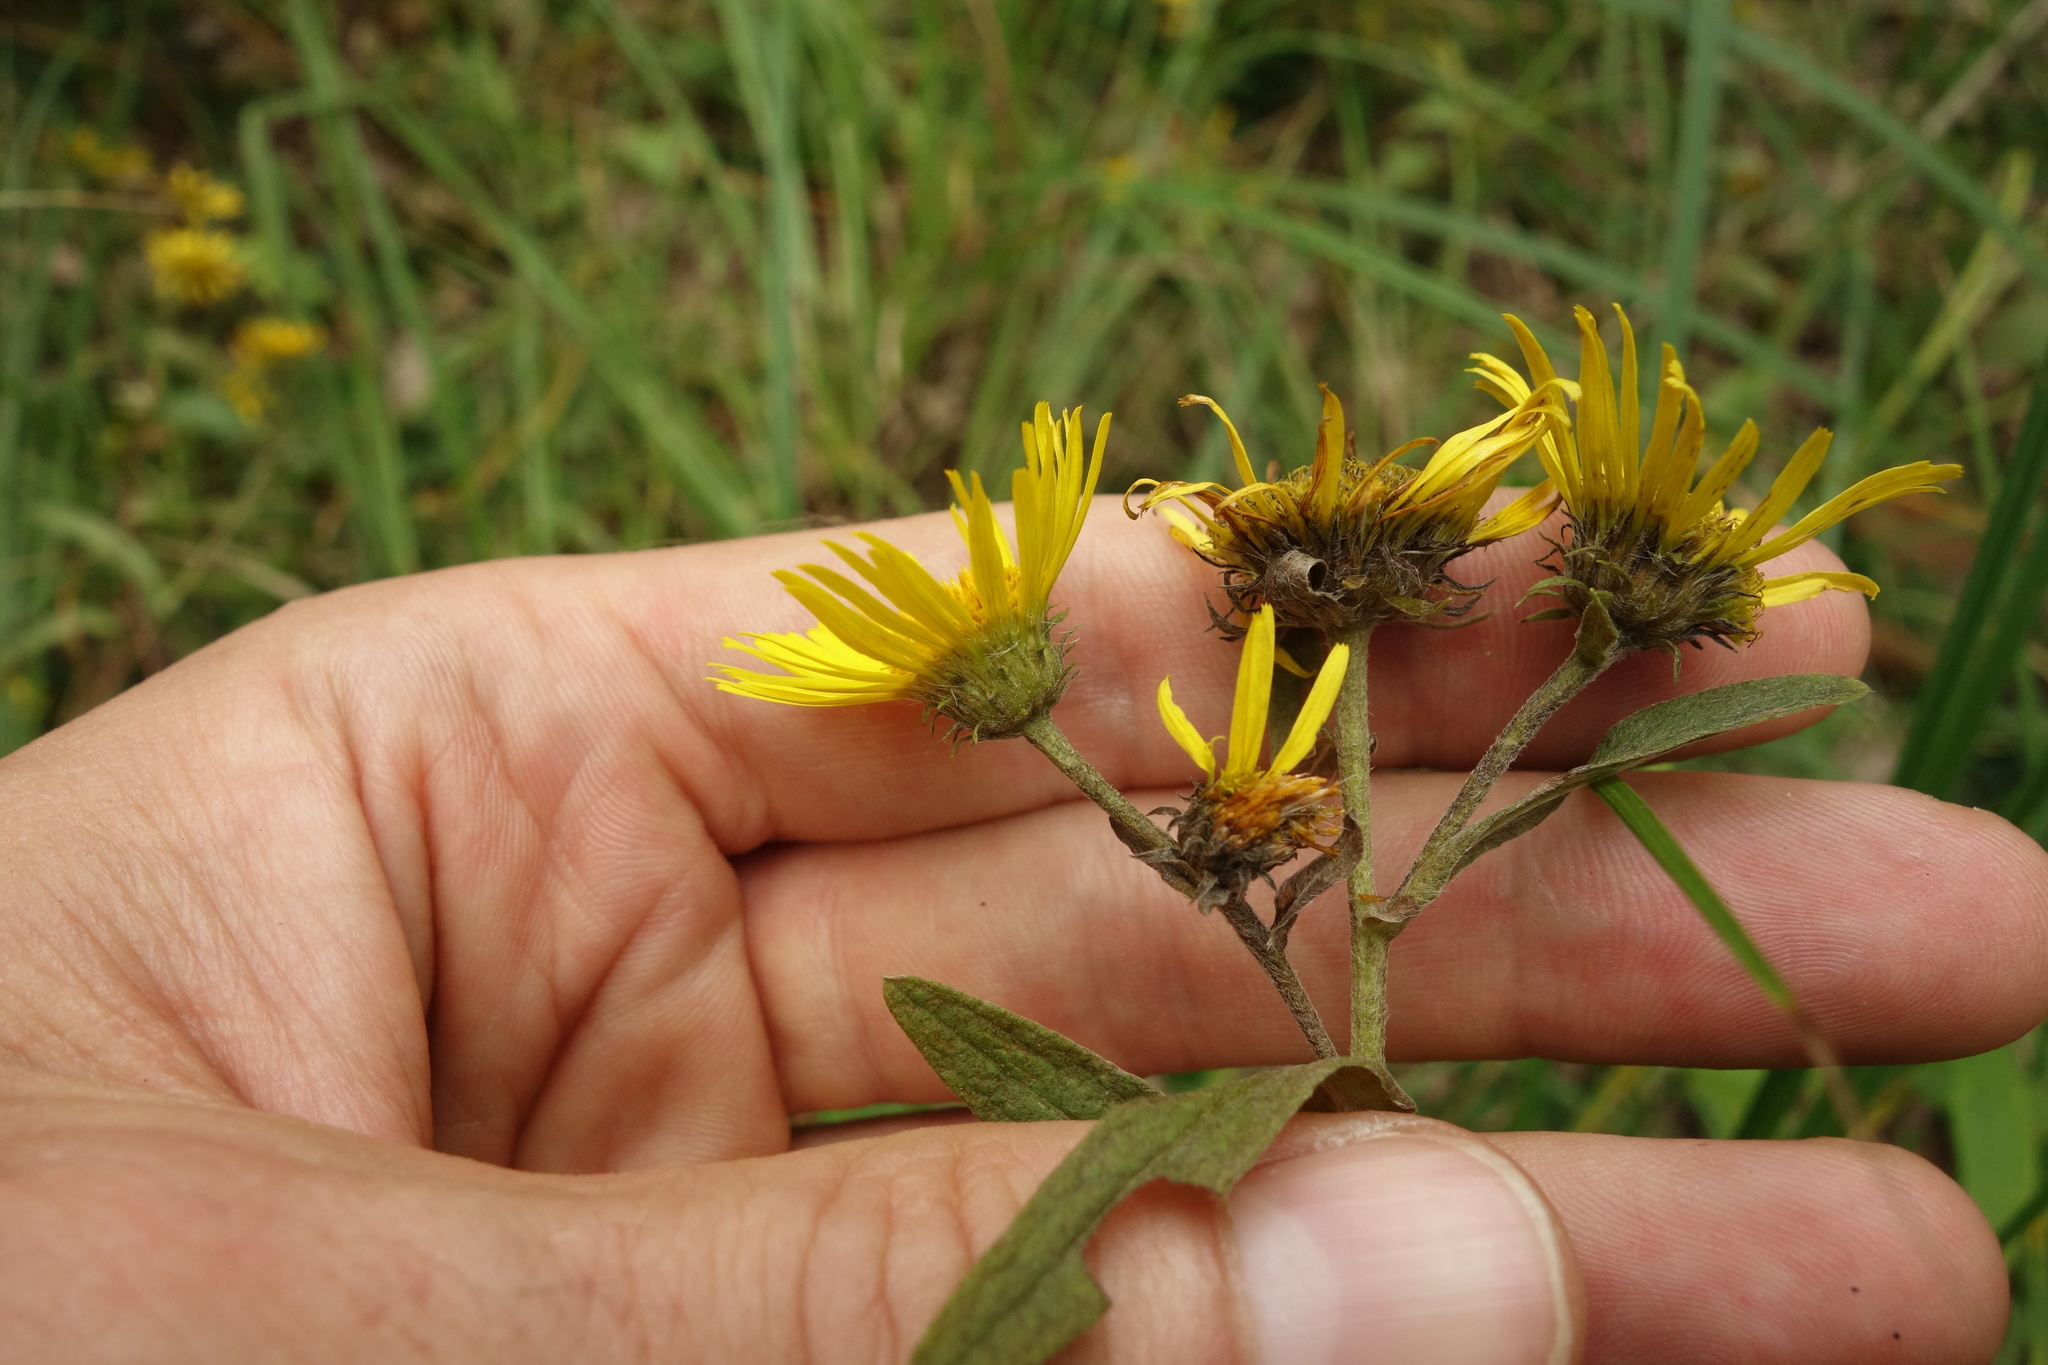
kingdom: Plantae
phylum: Tracheophyta
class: Magnoliopsida
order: Asterales
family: Asteraceae
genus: Pentanema
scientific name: Pentanema britannicum
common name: British elecampane
